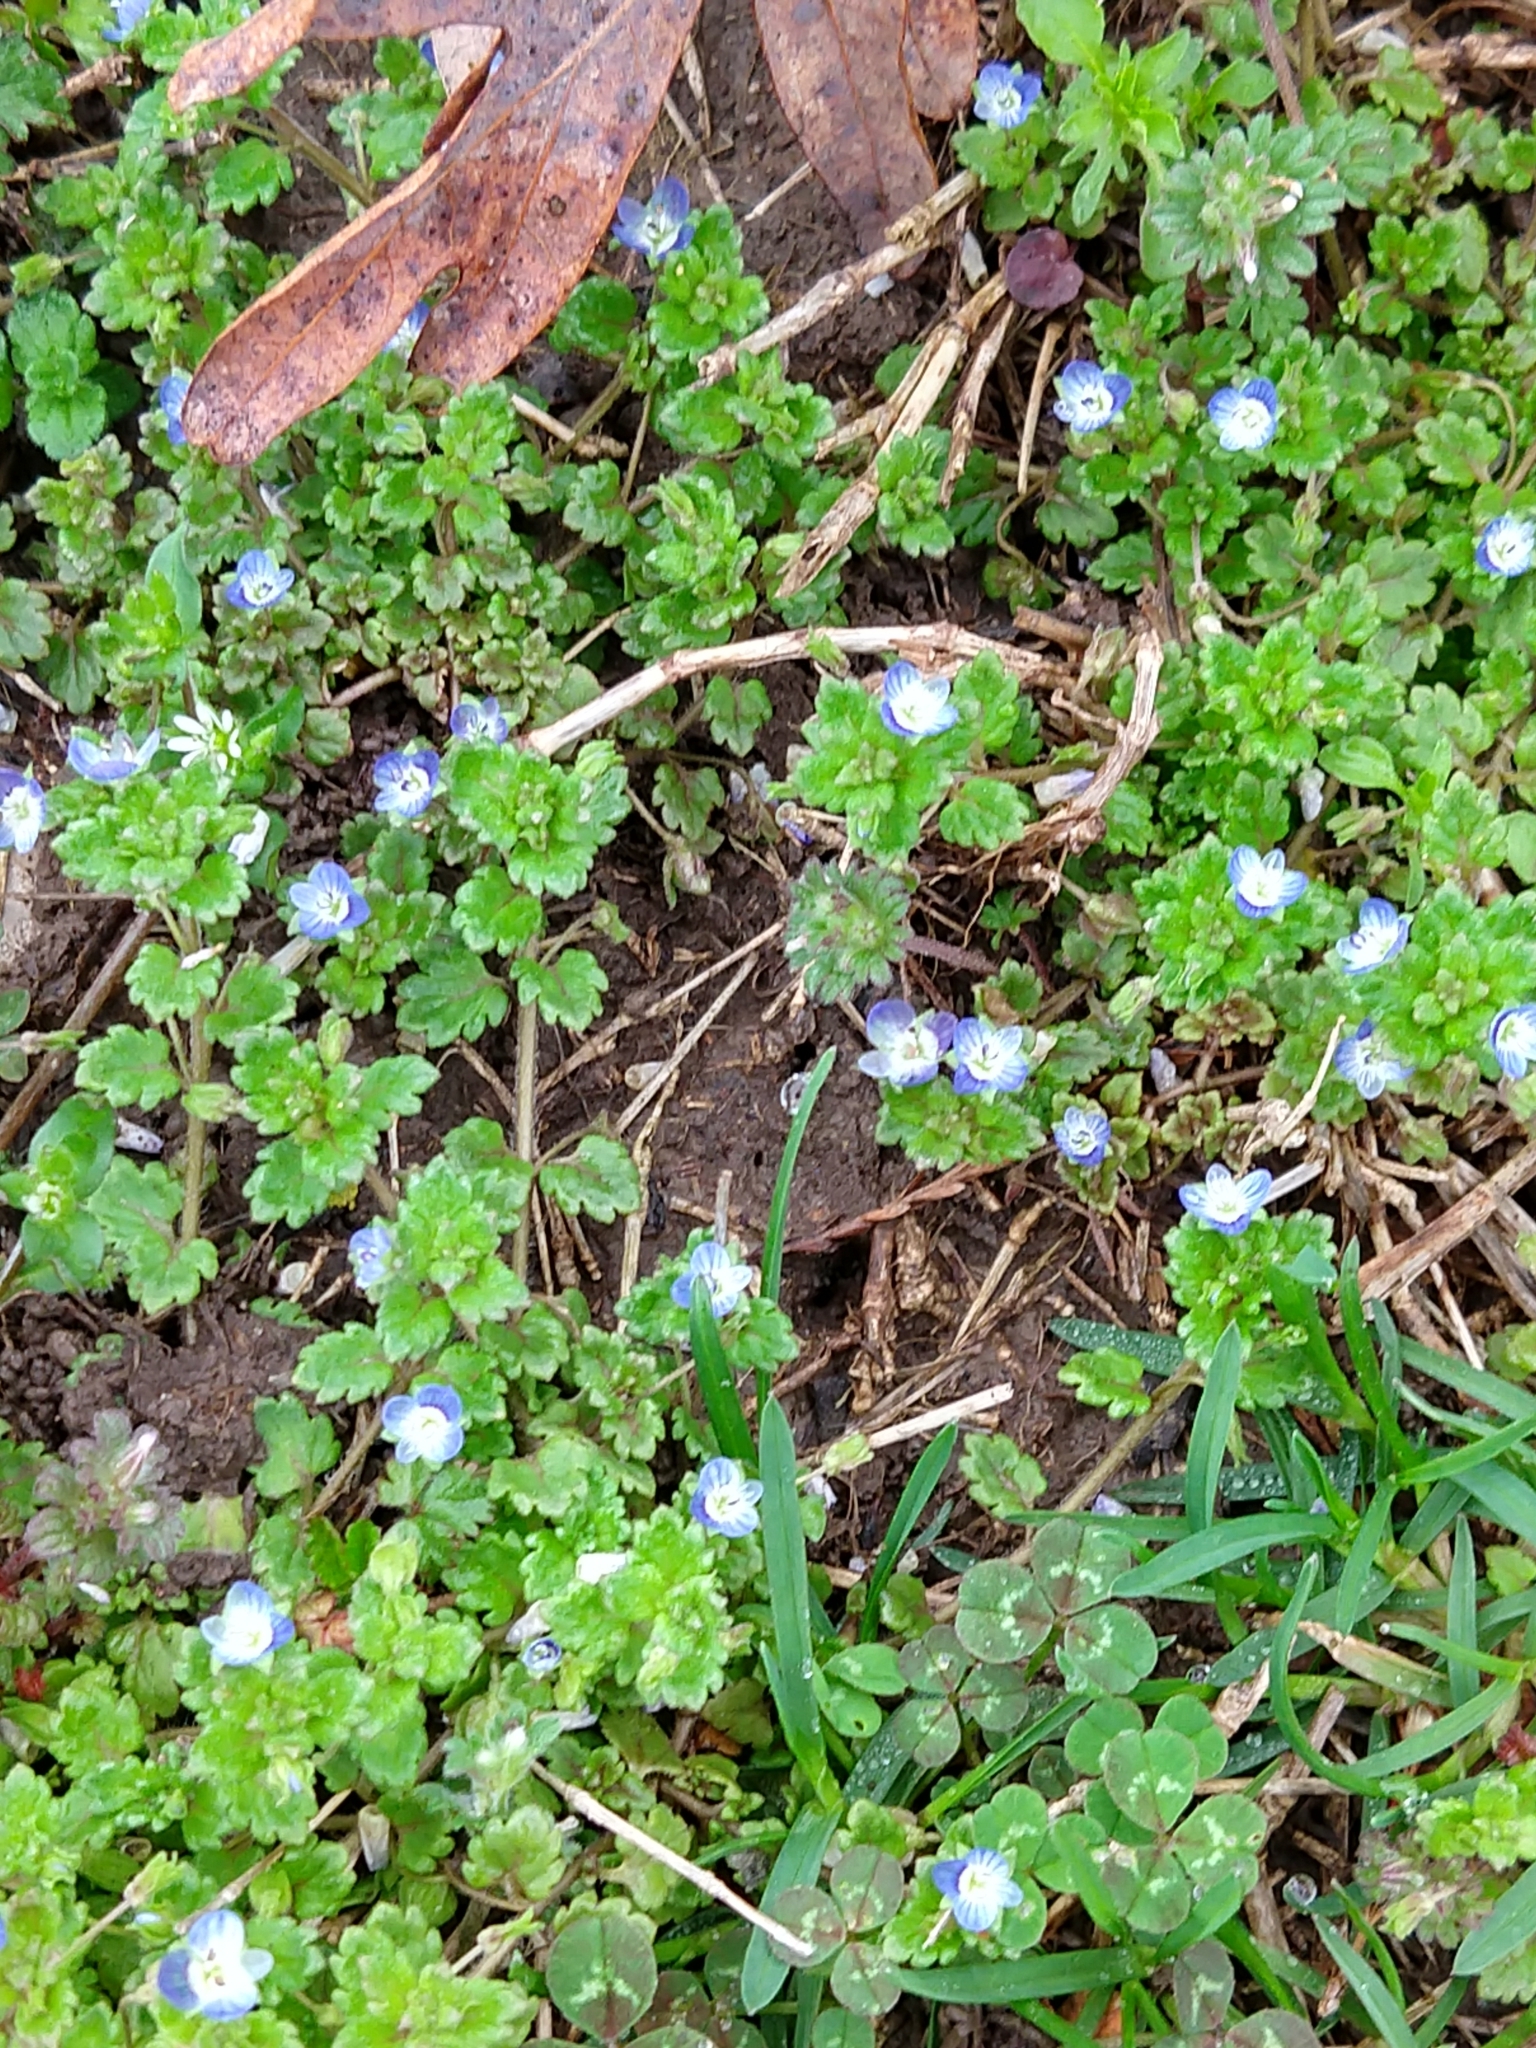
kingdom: Plantae
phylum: Tracheophyta
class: Magnoliopsida
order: Lamiales
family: Plantaginaceae
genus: Veronica
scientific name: Veronica polita
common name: Grey field-speedwell
